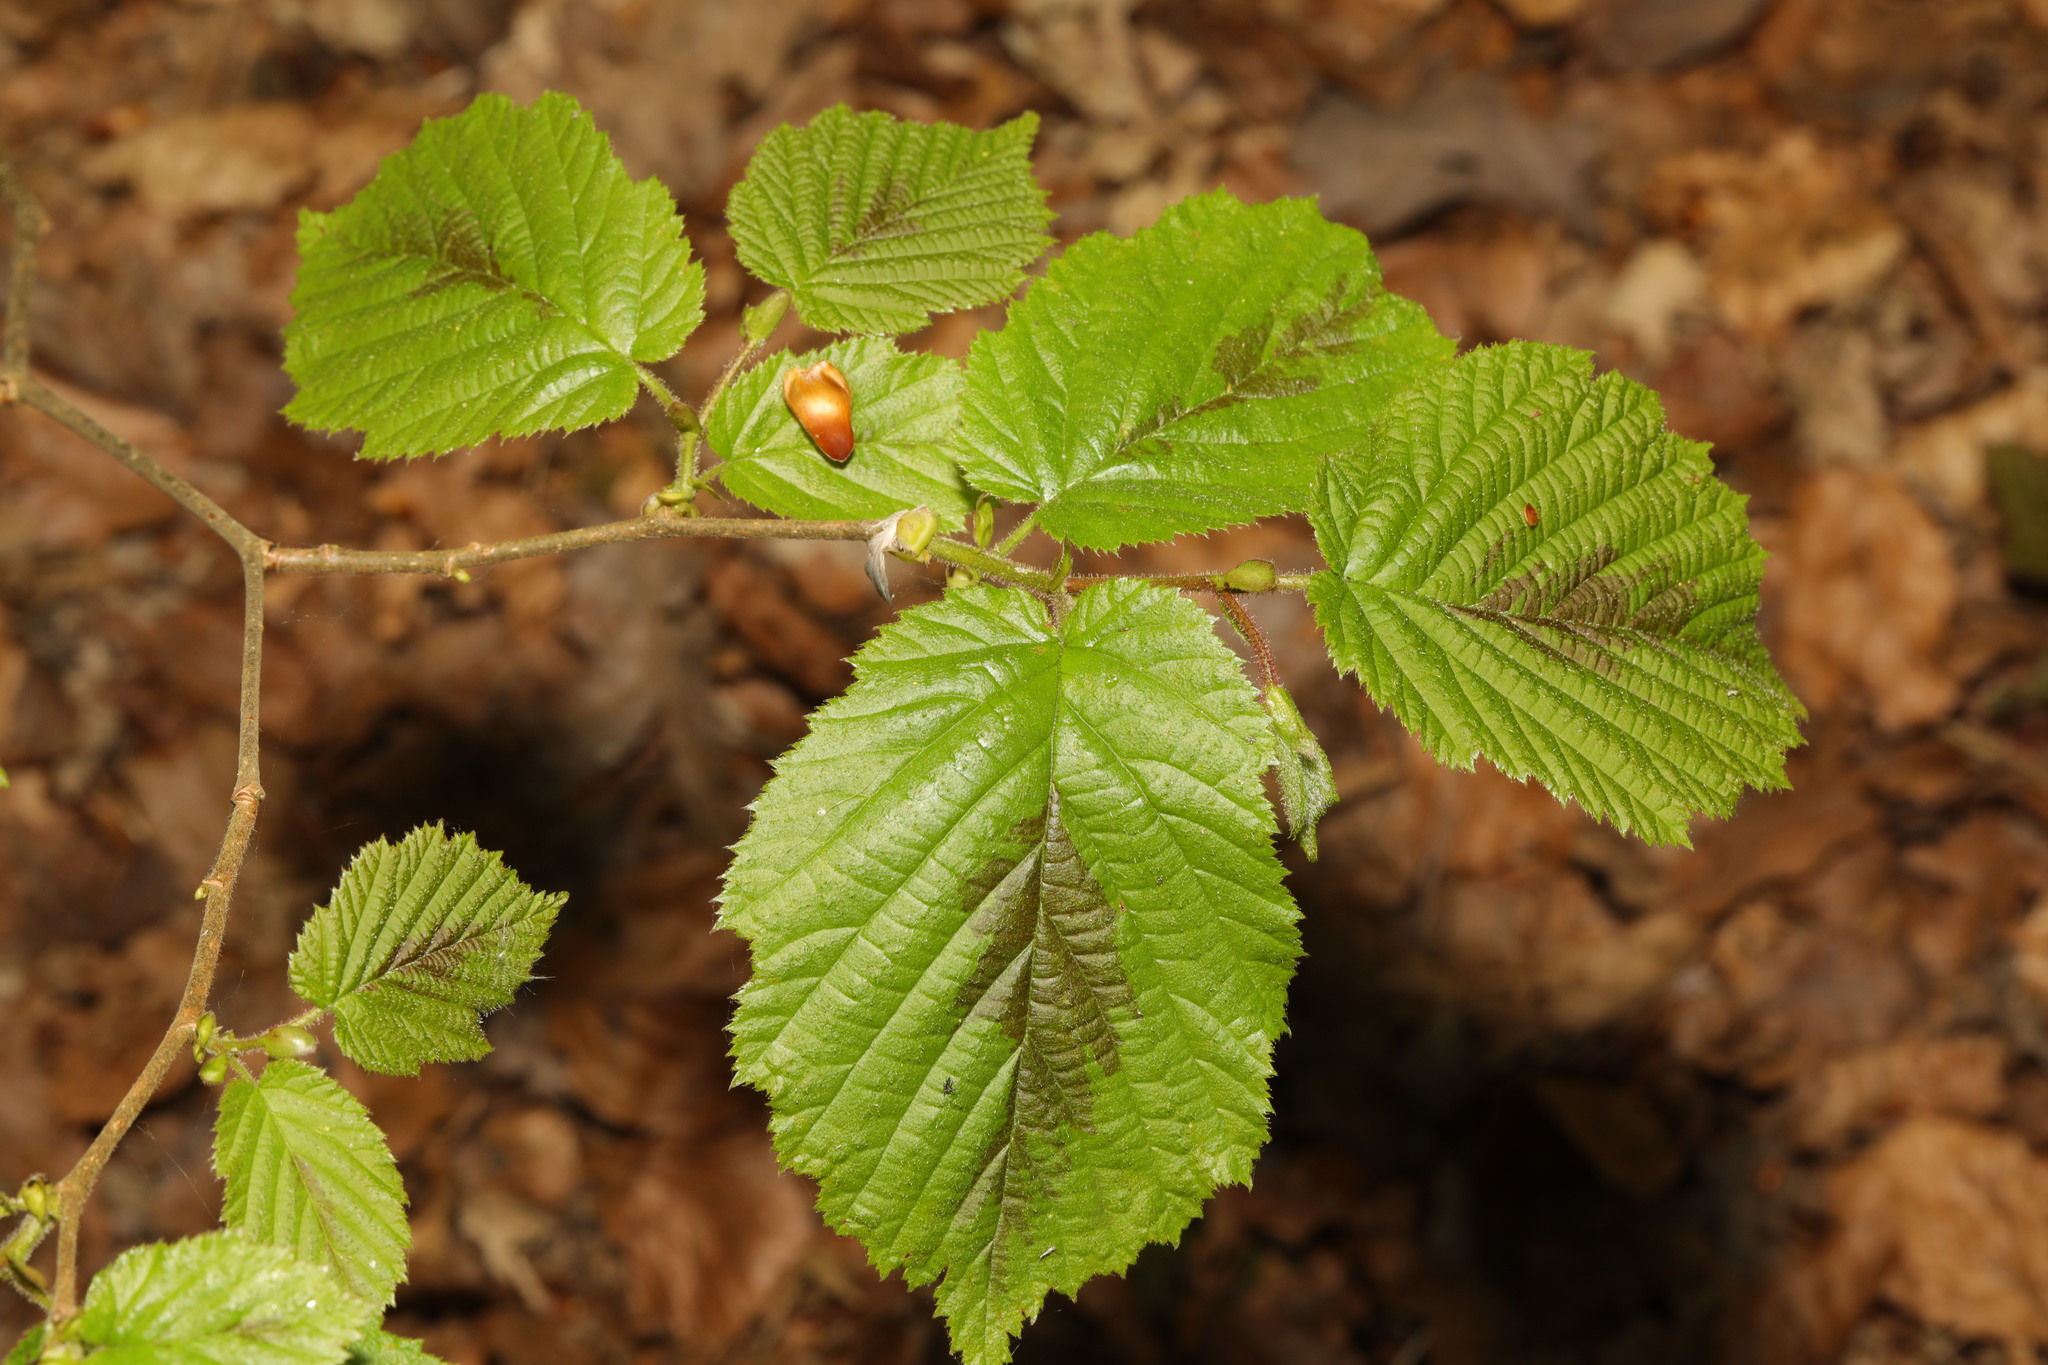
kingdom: Plantae
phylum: Tracheophyta
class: Magnoliopsida
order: Fagales
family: Betulaceae
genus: Corylus
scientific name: Corylus avellana
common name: European hazel
